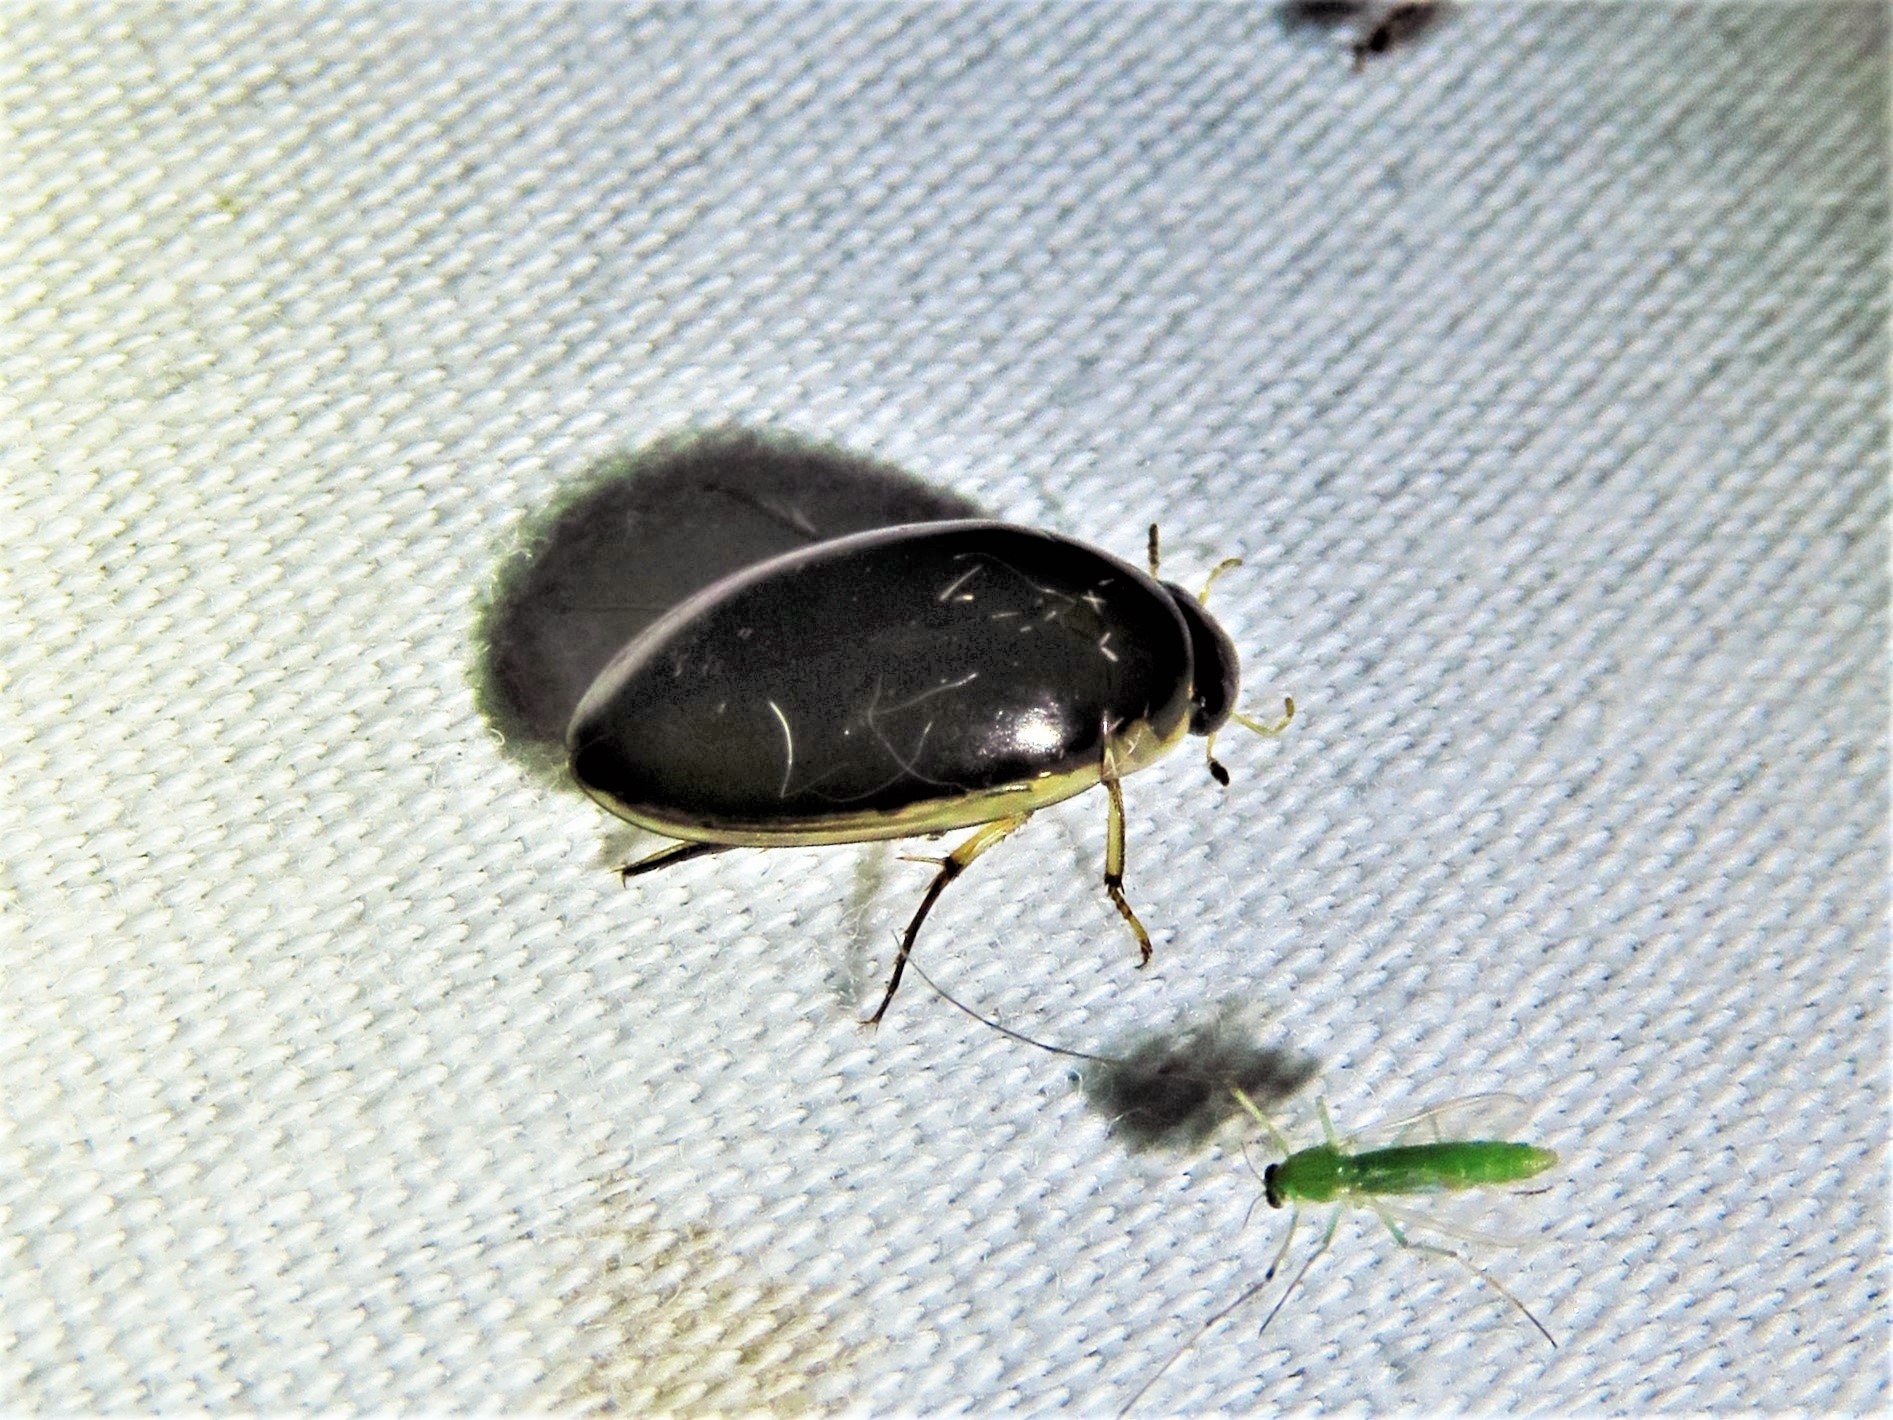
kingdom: Animalia
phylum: Arthropoda
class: Insecta
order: Coleoptera
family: Hydrophilidae
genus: Tropisternus
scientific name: Tropisternus lateralis
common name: Lateral-banded water scavenger beetle
